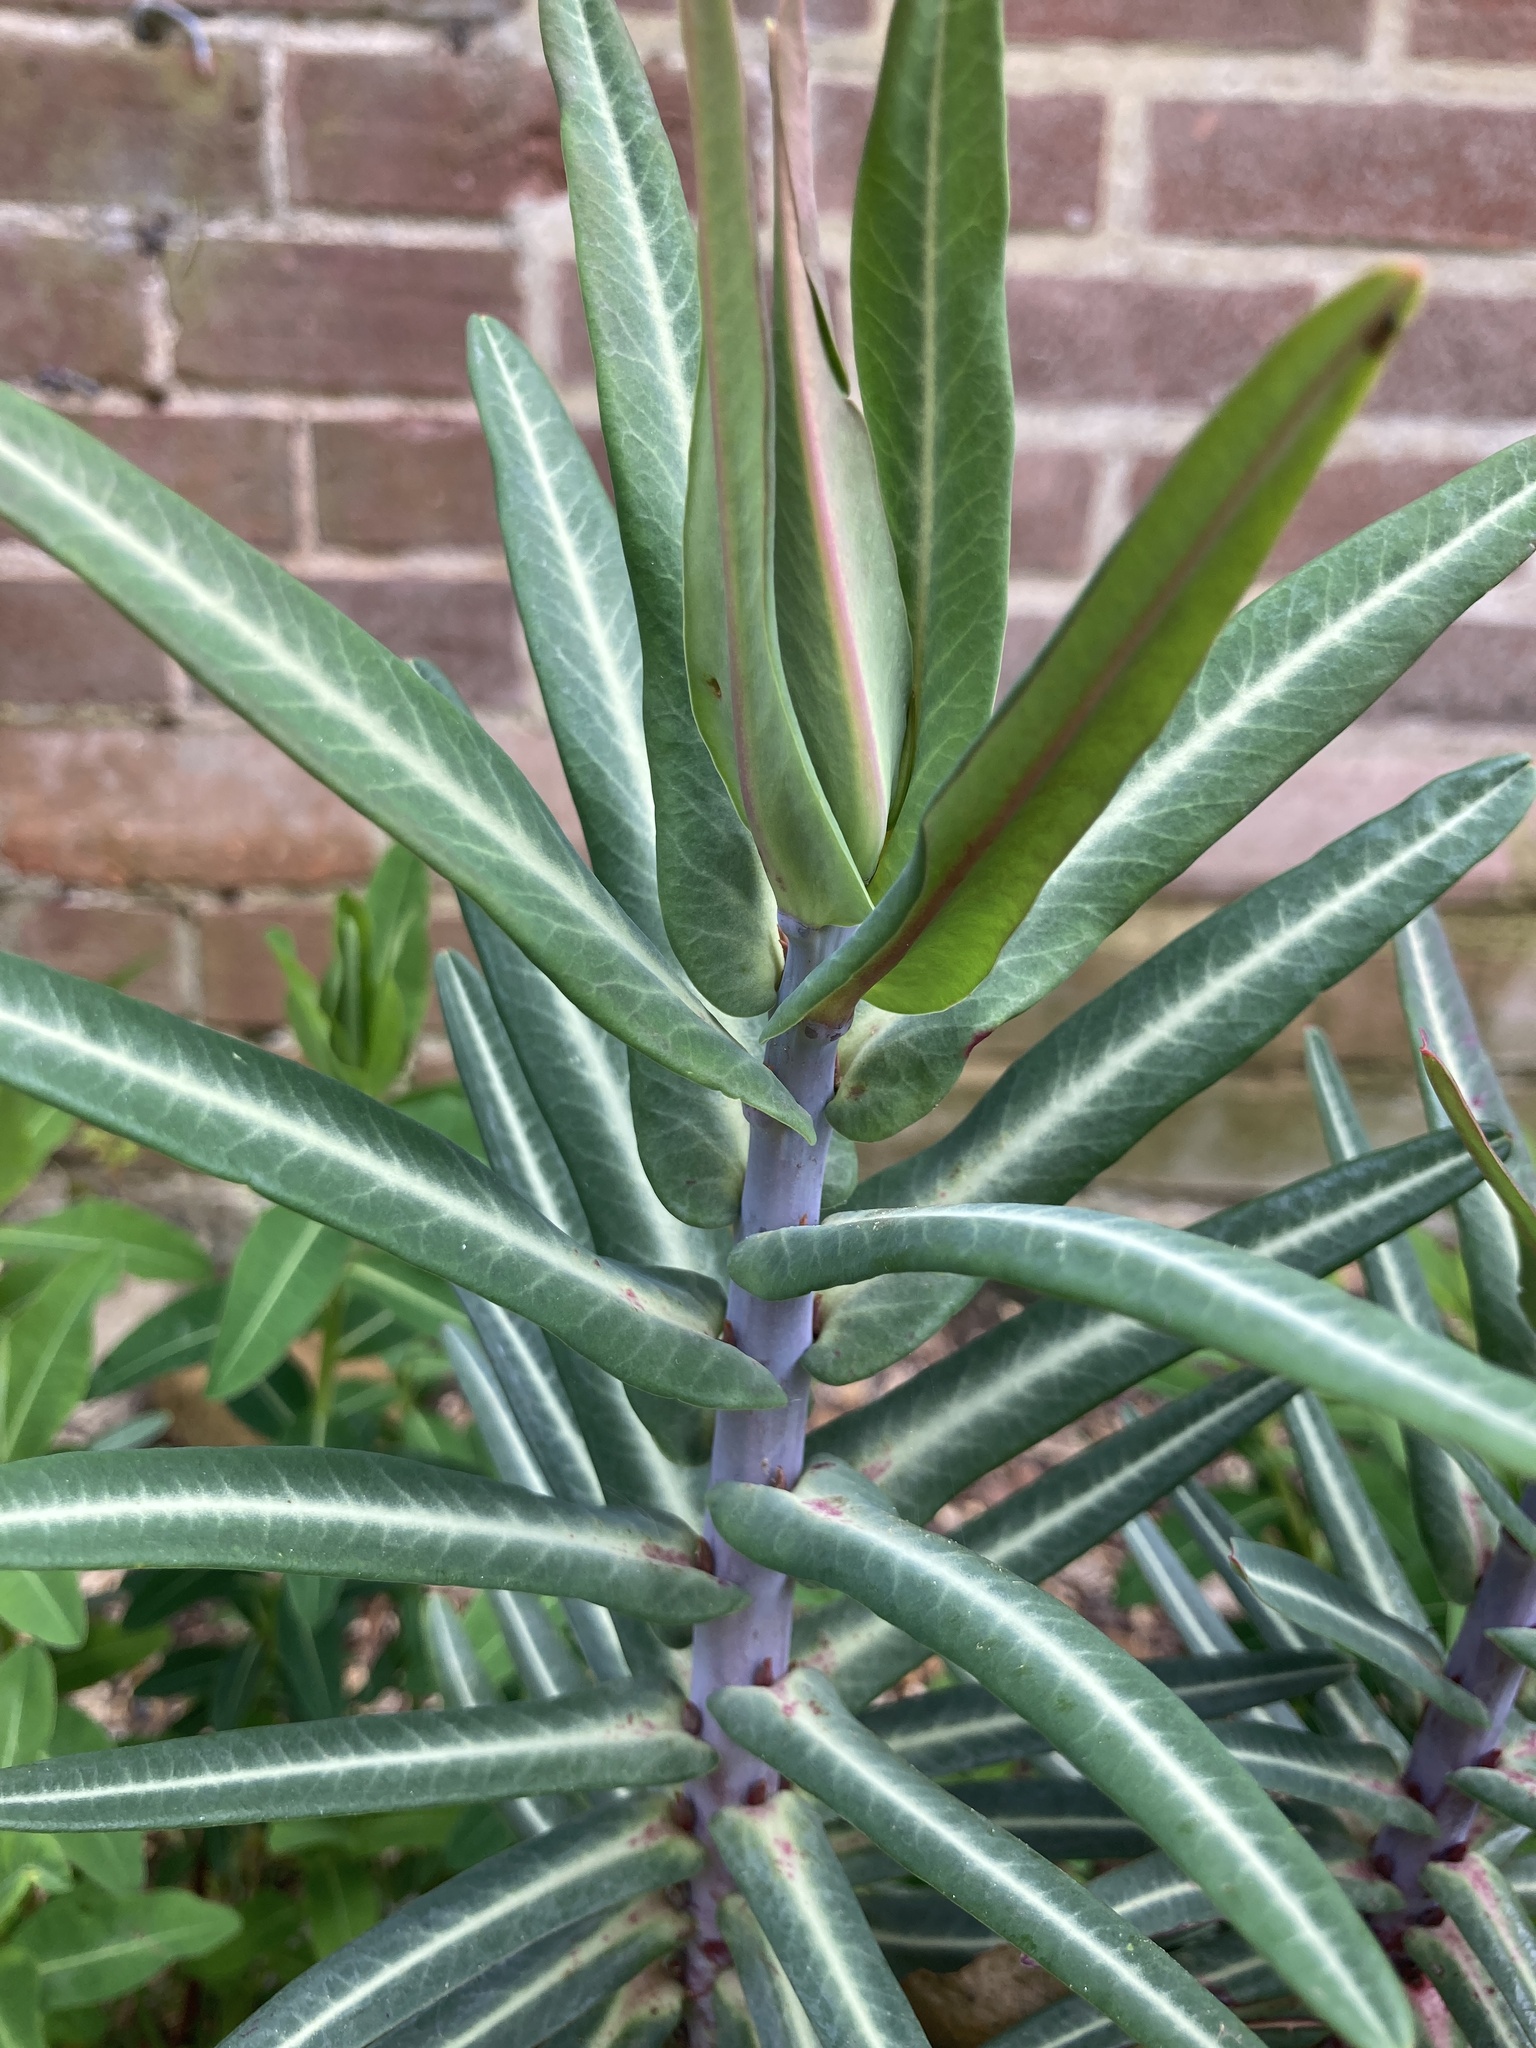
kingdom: Plantae
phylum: Tracheophyta
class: Magnoliopsida
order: Malpighiales
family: Euphorbiaceae
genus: Euphorbia
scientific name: Euphorbia lathyris
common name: Caper spurge
